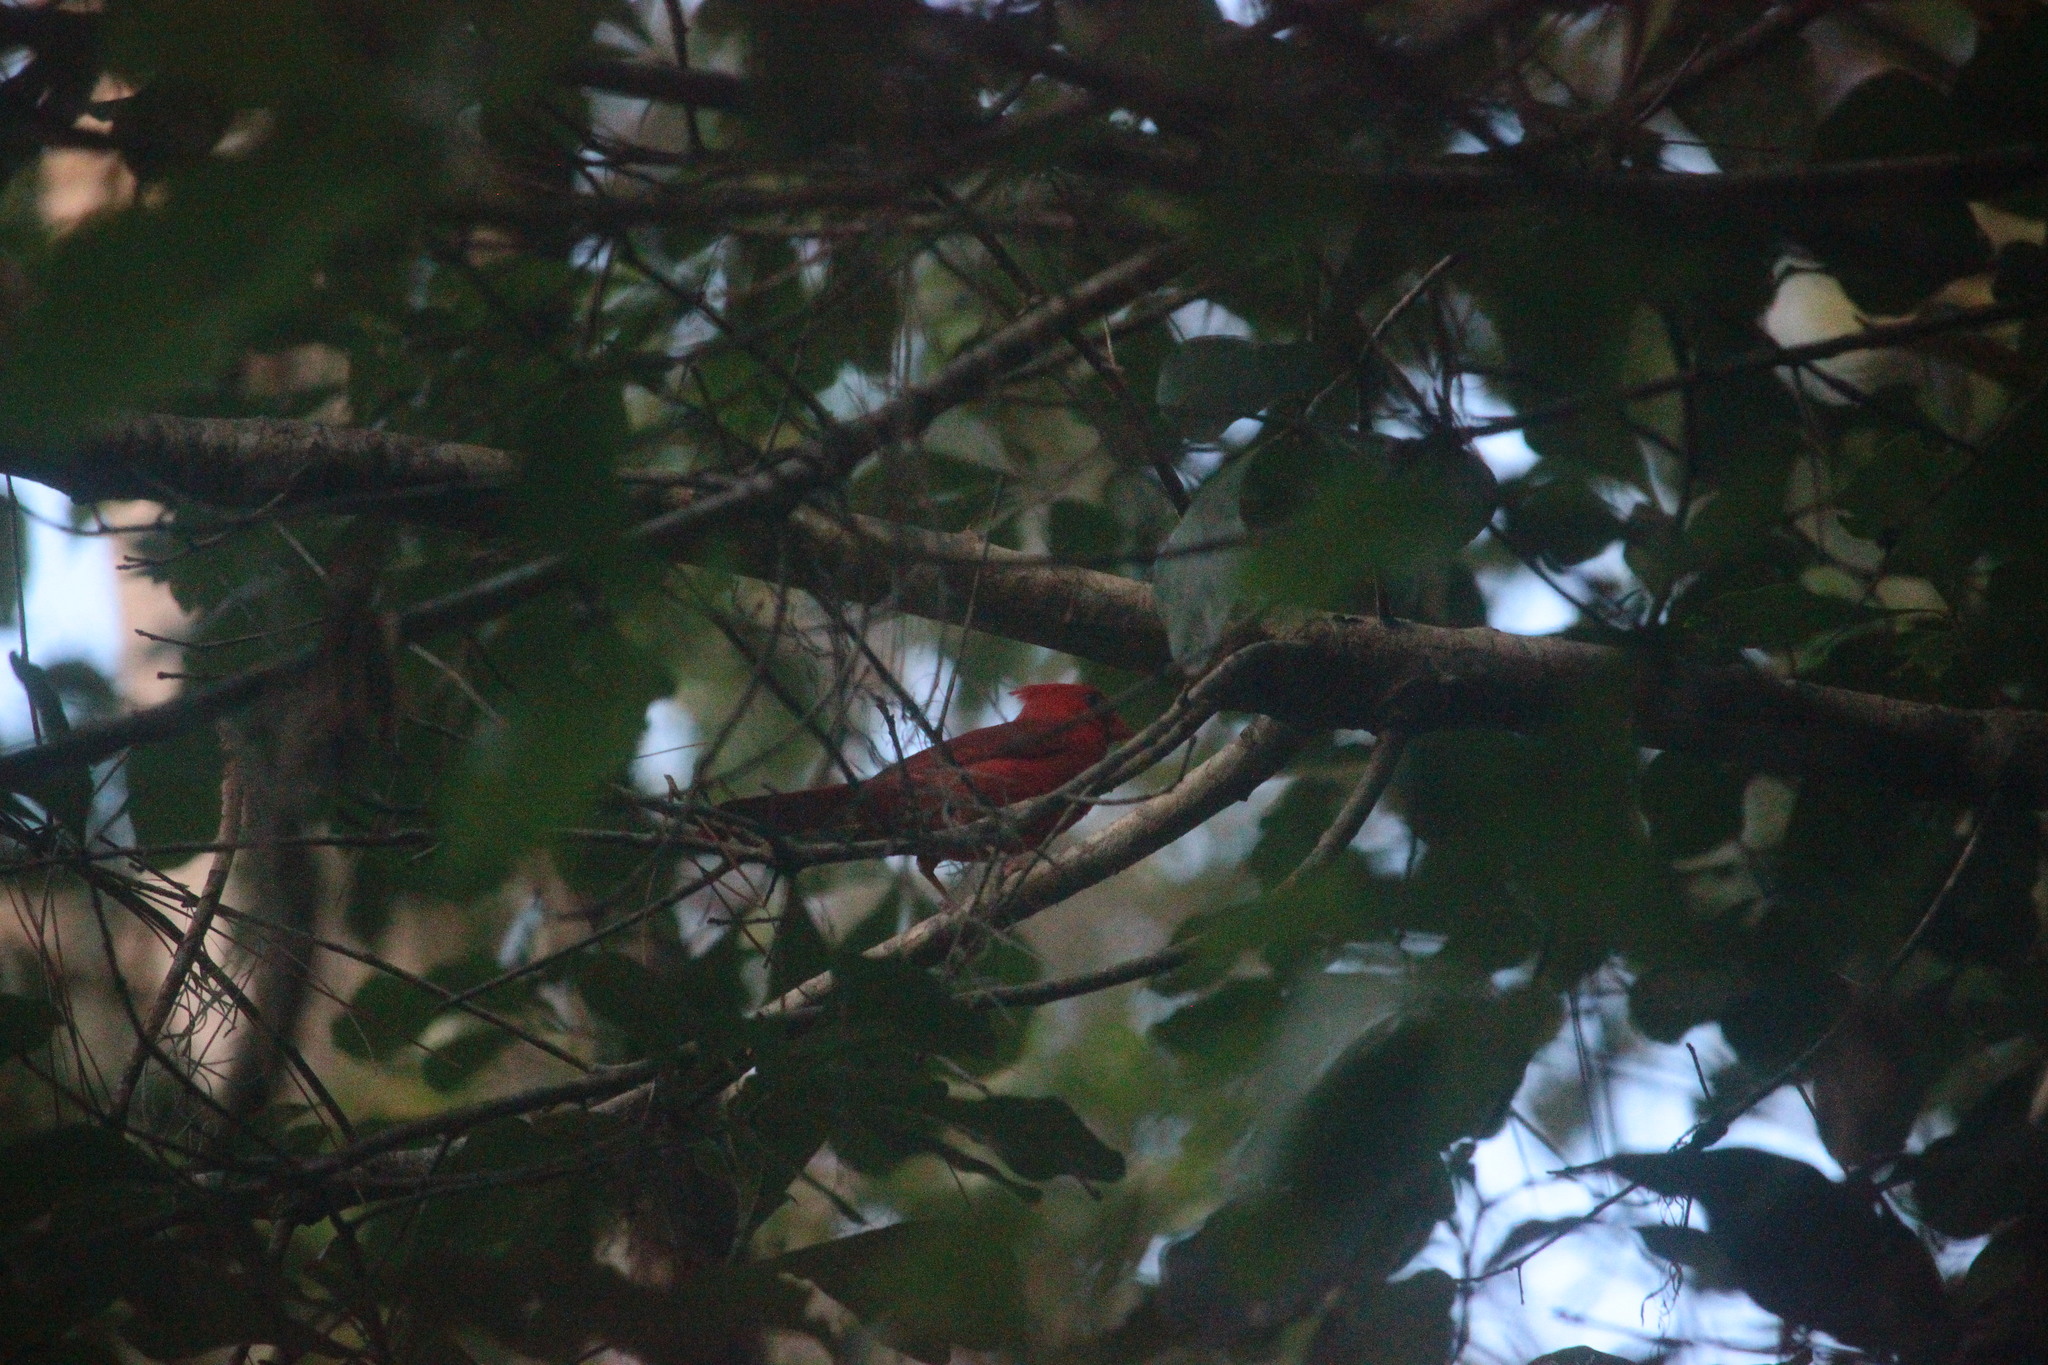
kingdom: Animalia
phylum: Chordata
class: Aves
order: Passeriformes
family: Cardinalidae
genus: Cardinalis
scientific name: Cardinalis cardinalis
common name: Northern cardinal
